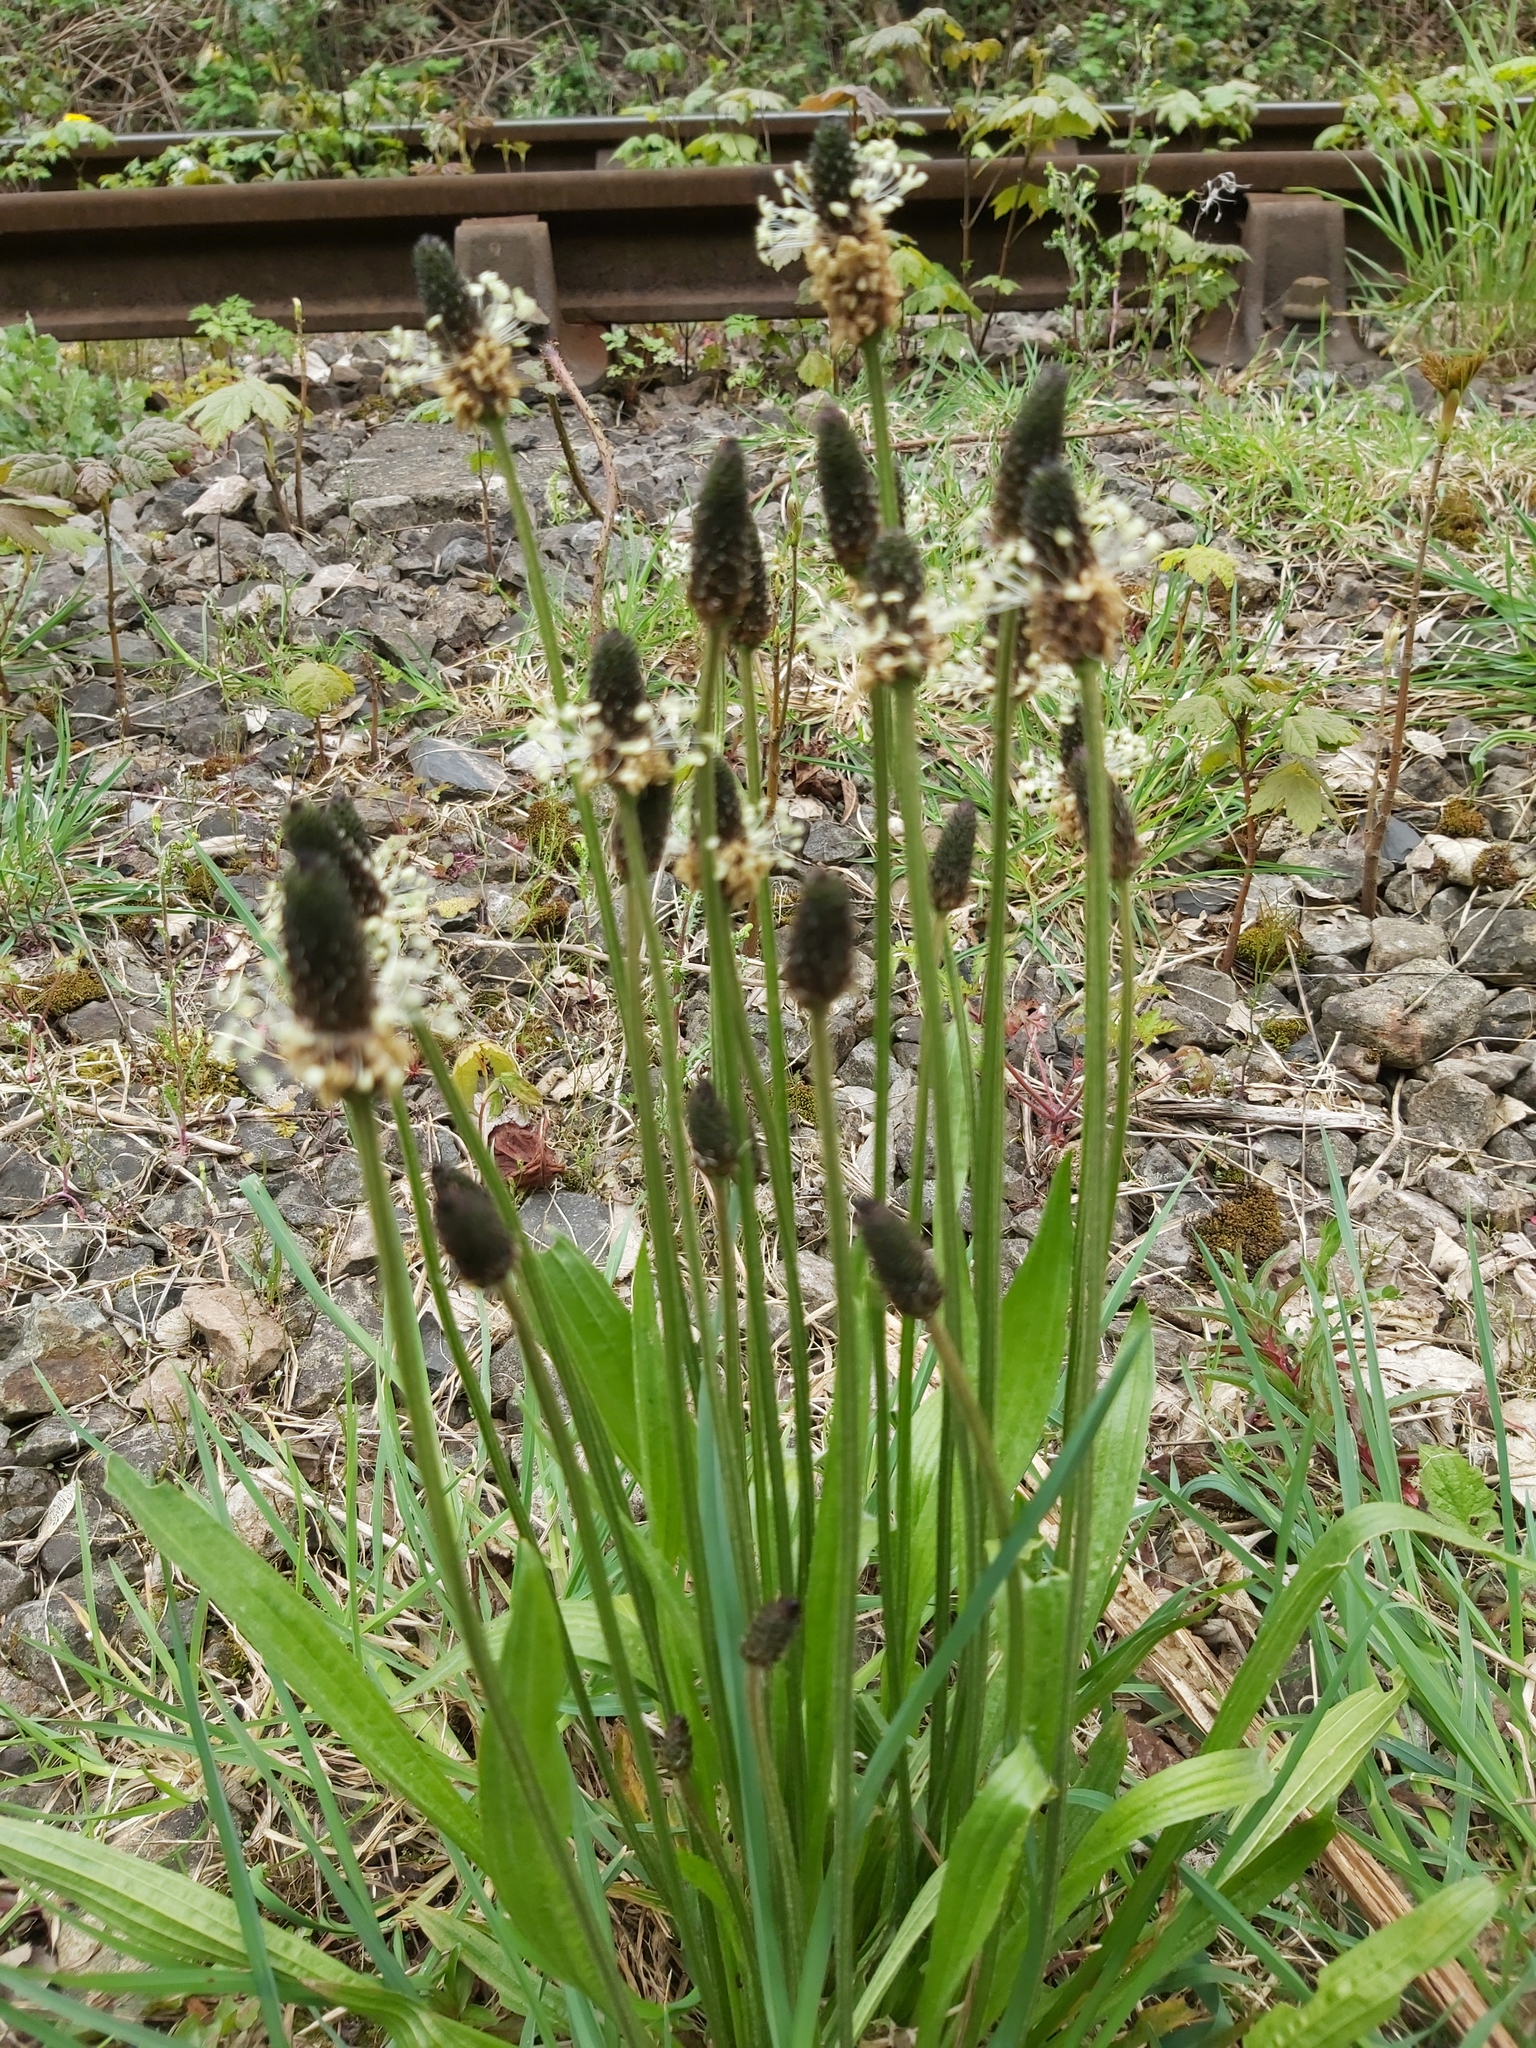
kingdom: Plantae
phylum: Tracheophyta
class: Magnoliopsida
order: Lamiales
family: Plantaginaceae
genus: Plantago
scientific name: Plantago lanceolata
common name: Ribwort plantain
